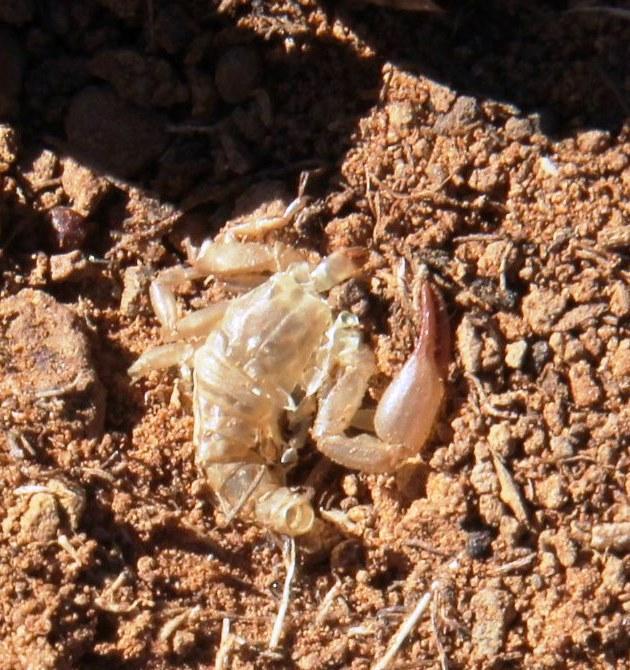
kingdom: Animalia
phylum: Arthropoda
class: Arachnida
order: Scorpiones
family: Scorpionidae
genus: Opistophthalmus
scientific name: Opistophthalmus austerus
